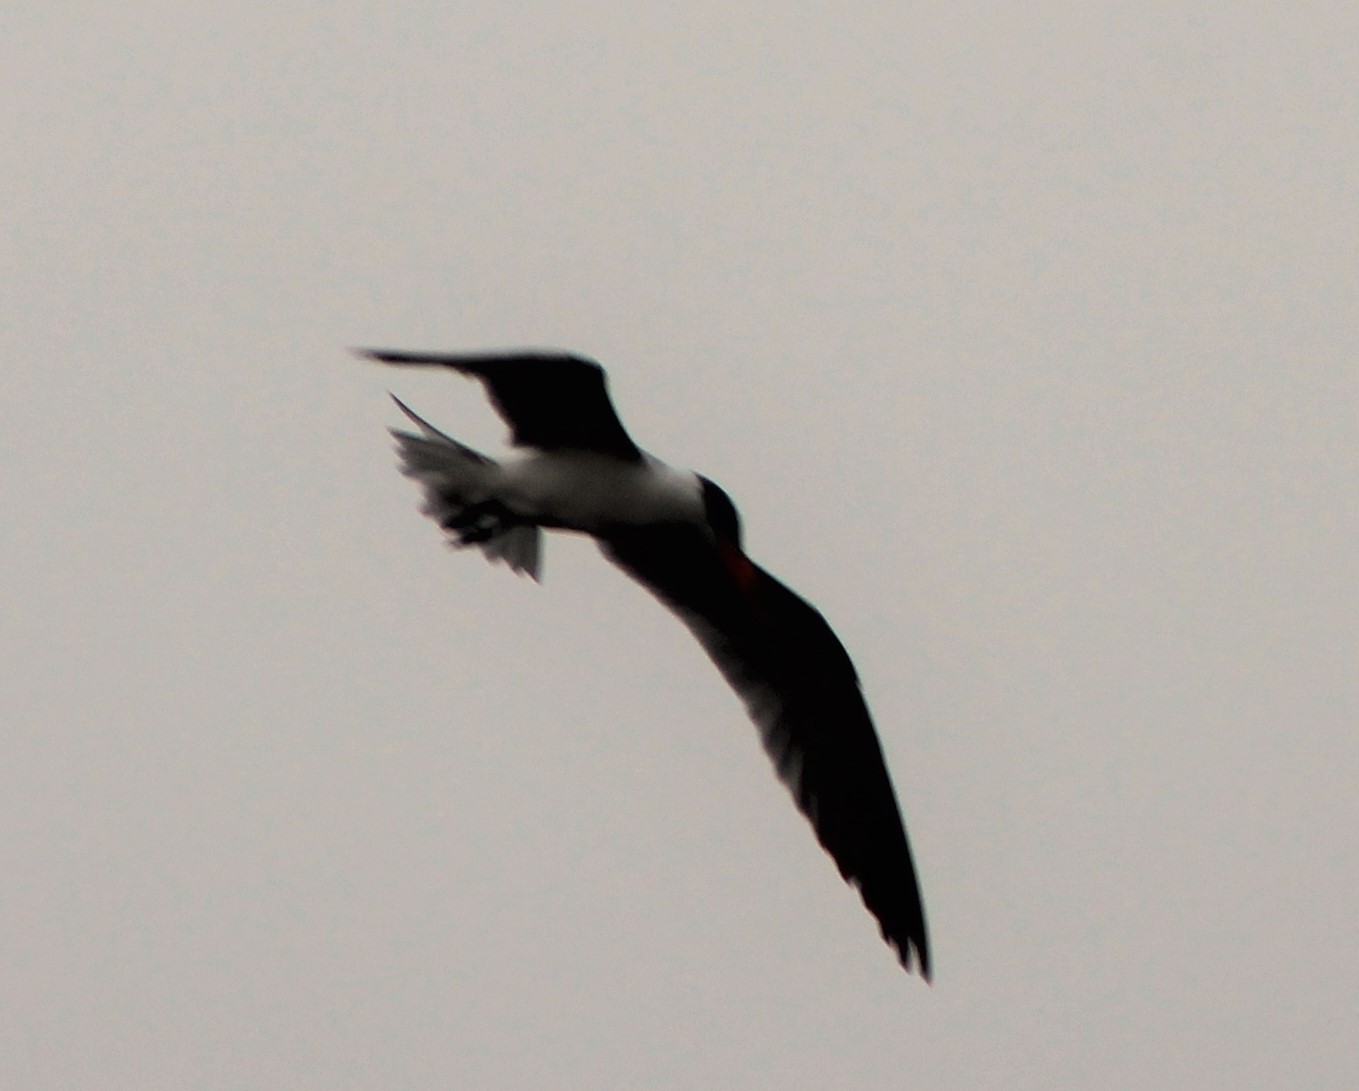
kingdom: Animalia
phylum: Chordata
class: Aves
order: Charadriiformes
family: Laridae
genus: Hydroprogne
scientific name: Hydroprogne caspia
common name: Caspian tern
